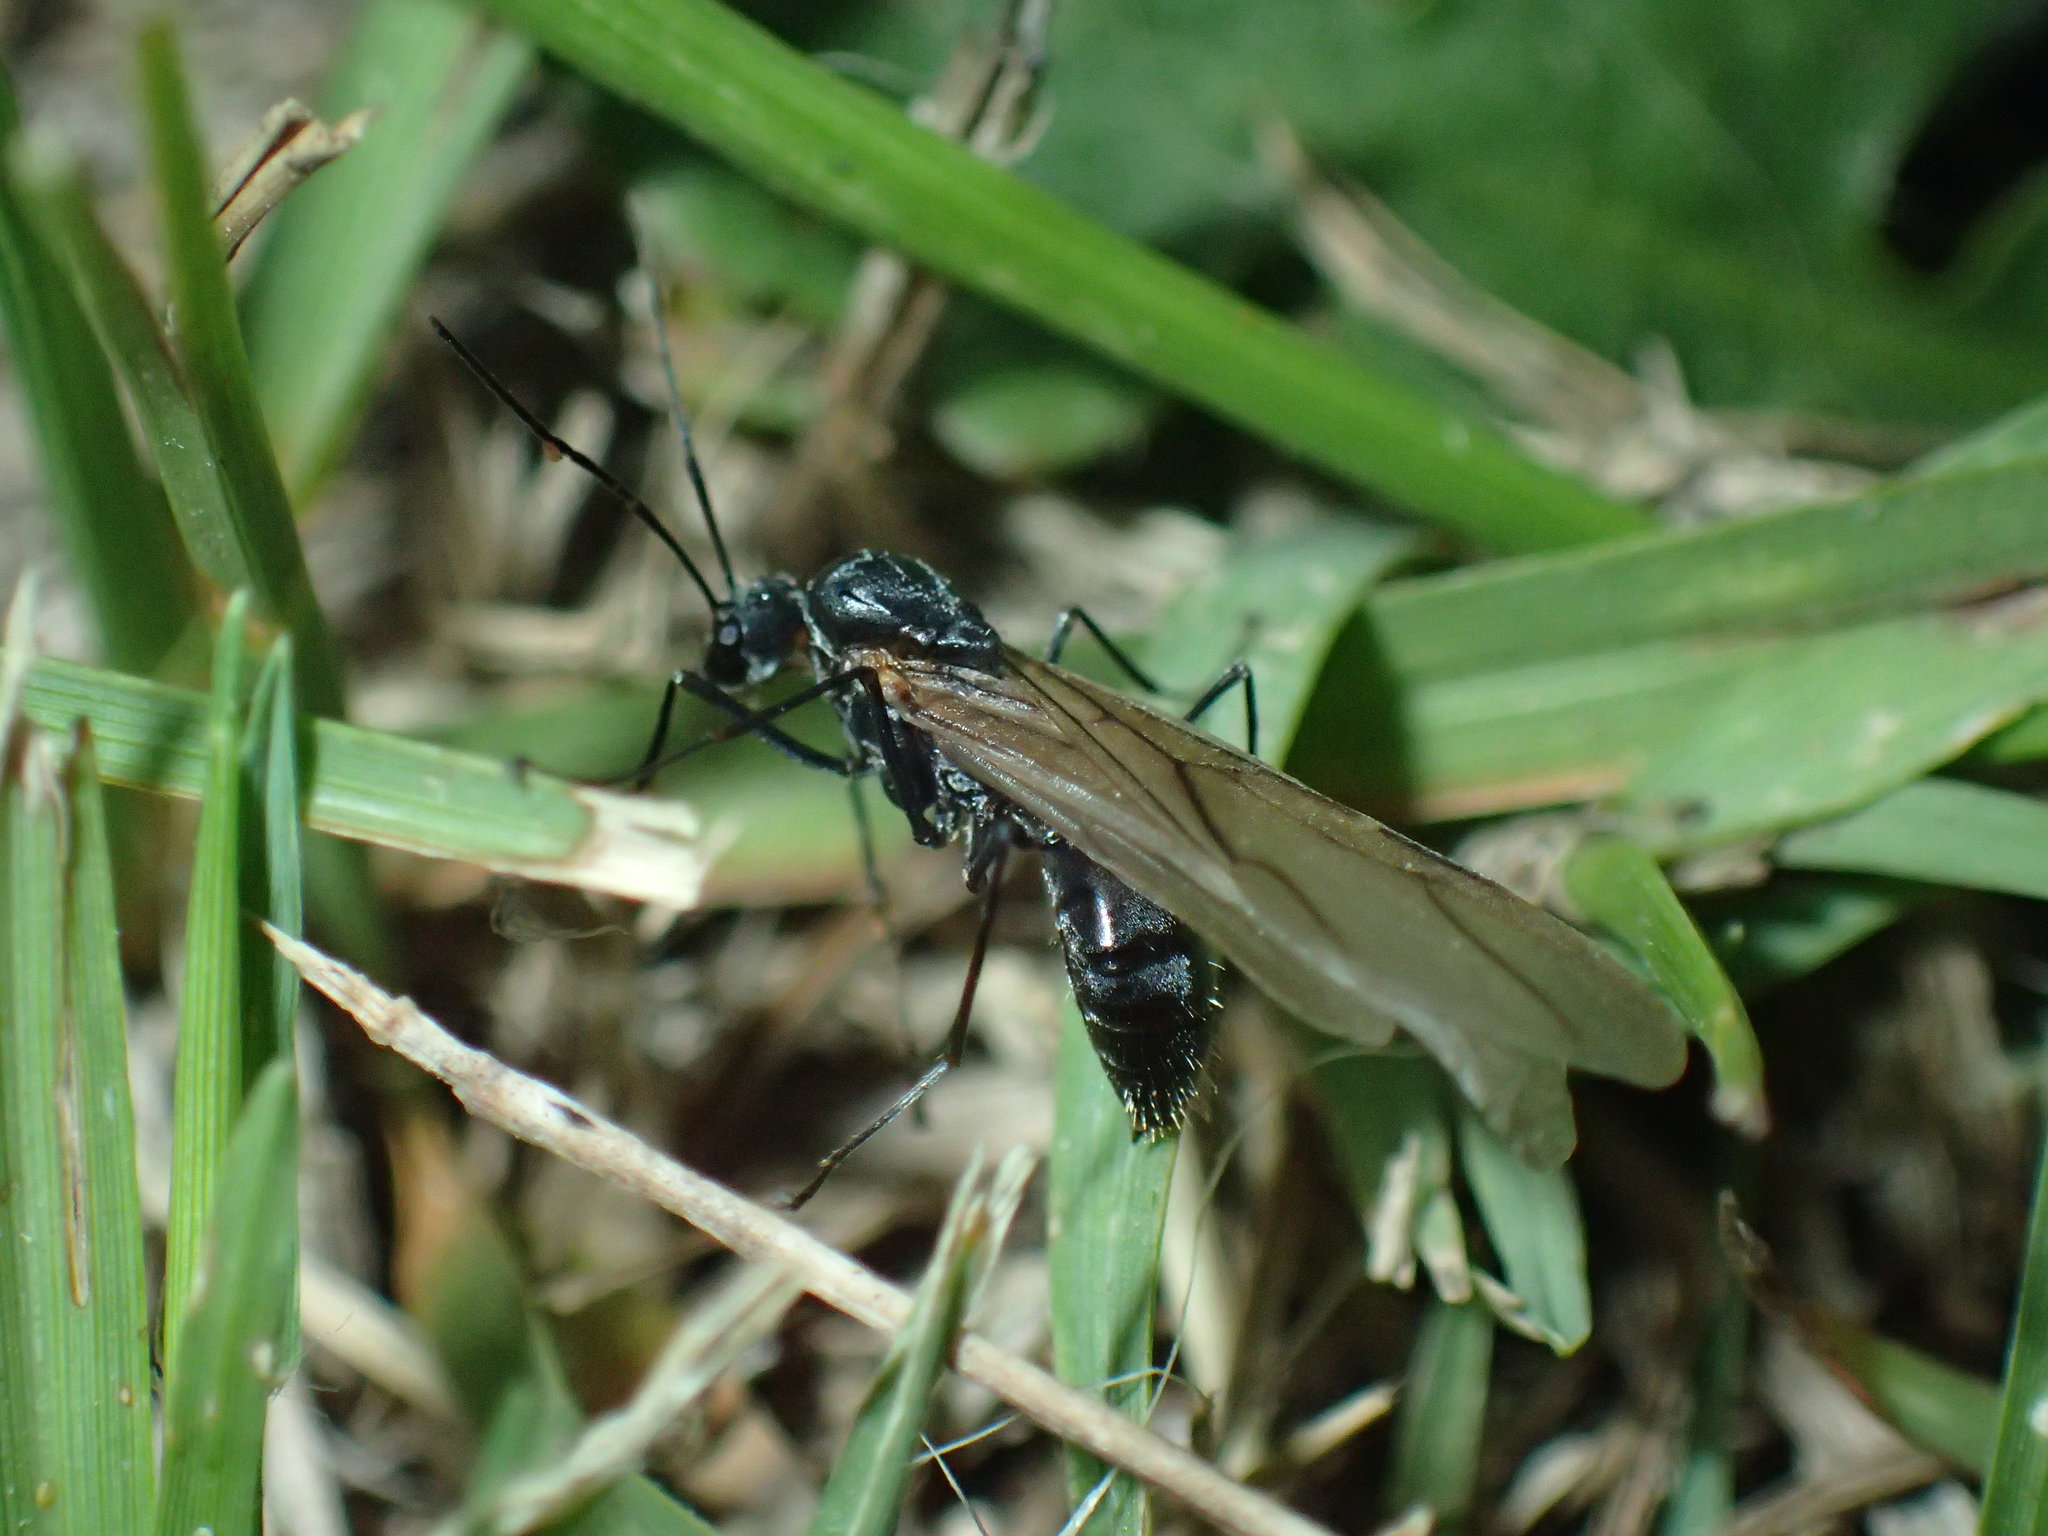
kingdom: Animalia
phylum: Arthropoda
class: Insecta
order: Hymenoptera
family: Formicidae
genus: Polyrhachis
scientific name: Polyrhachis schistacea
